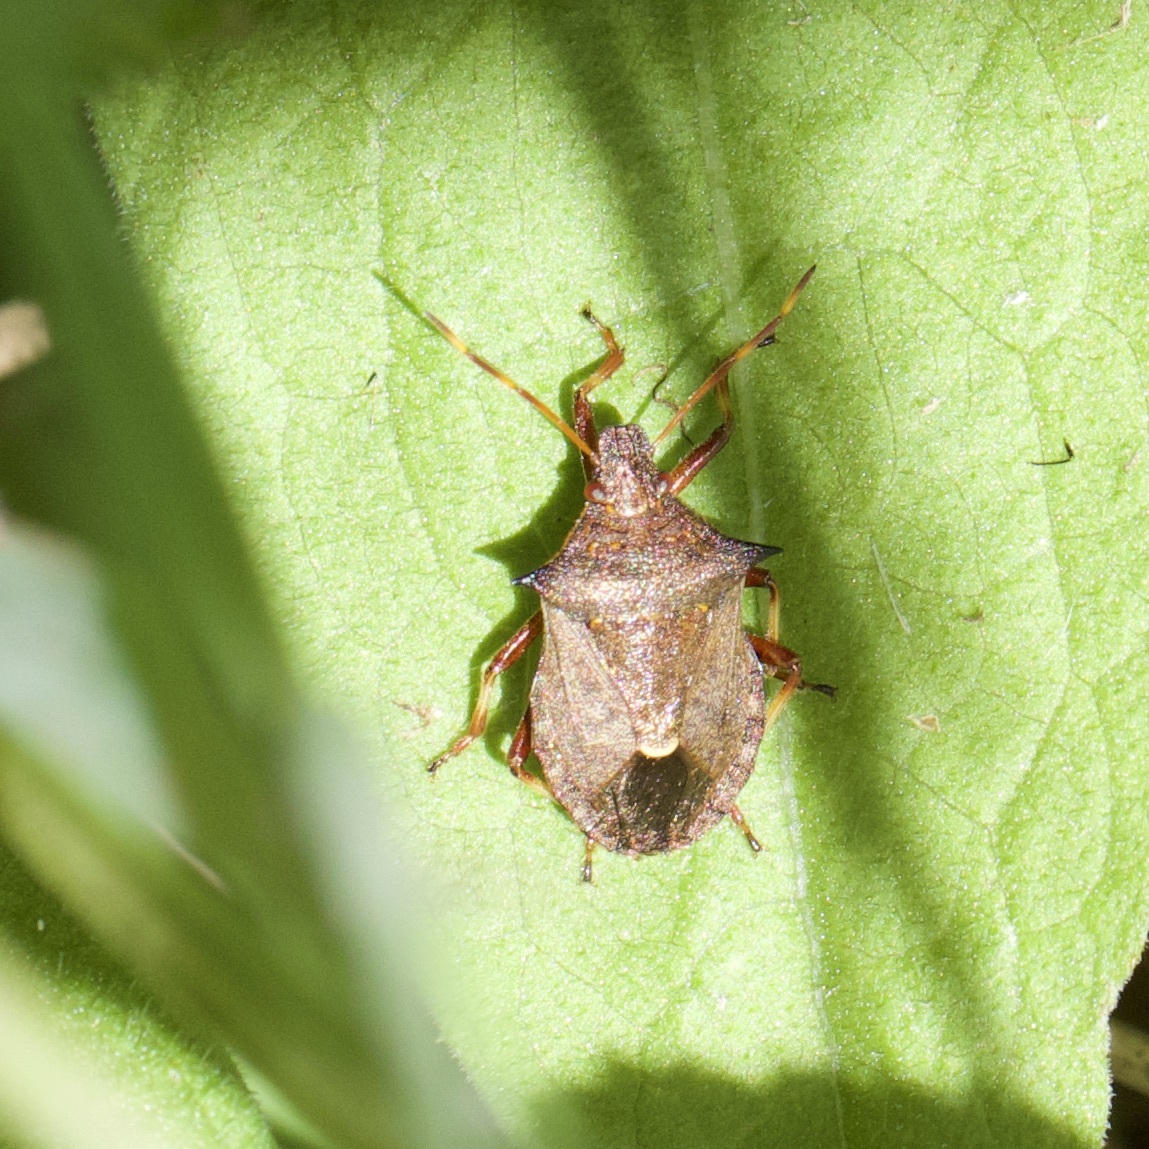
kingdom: Animalia
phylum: Arthropoda
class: Insecta
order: Hemiptera
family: Pentatomidae
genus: Picromerus
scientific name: Picromerus bidens
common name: Spiked shieldbug
